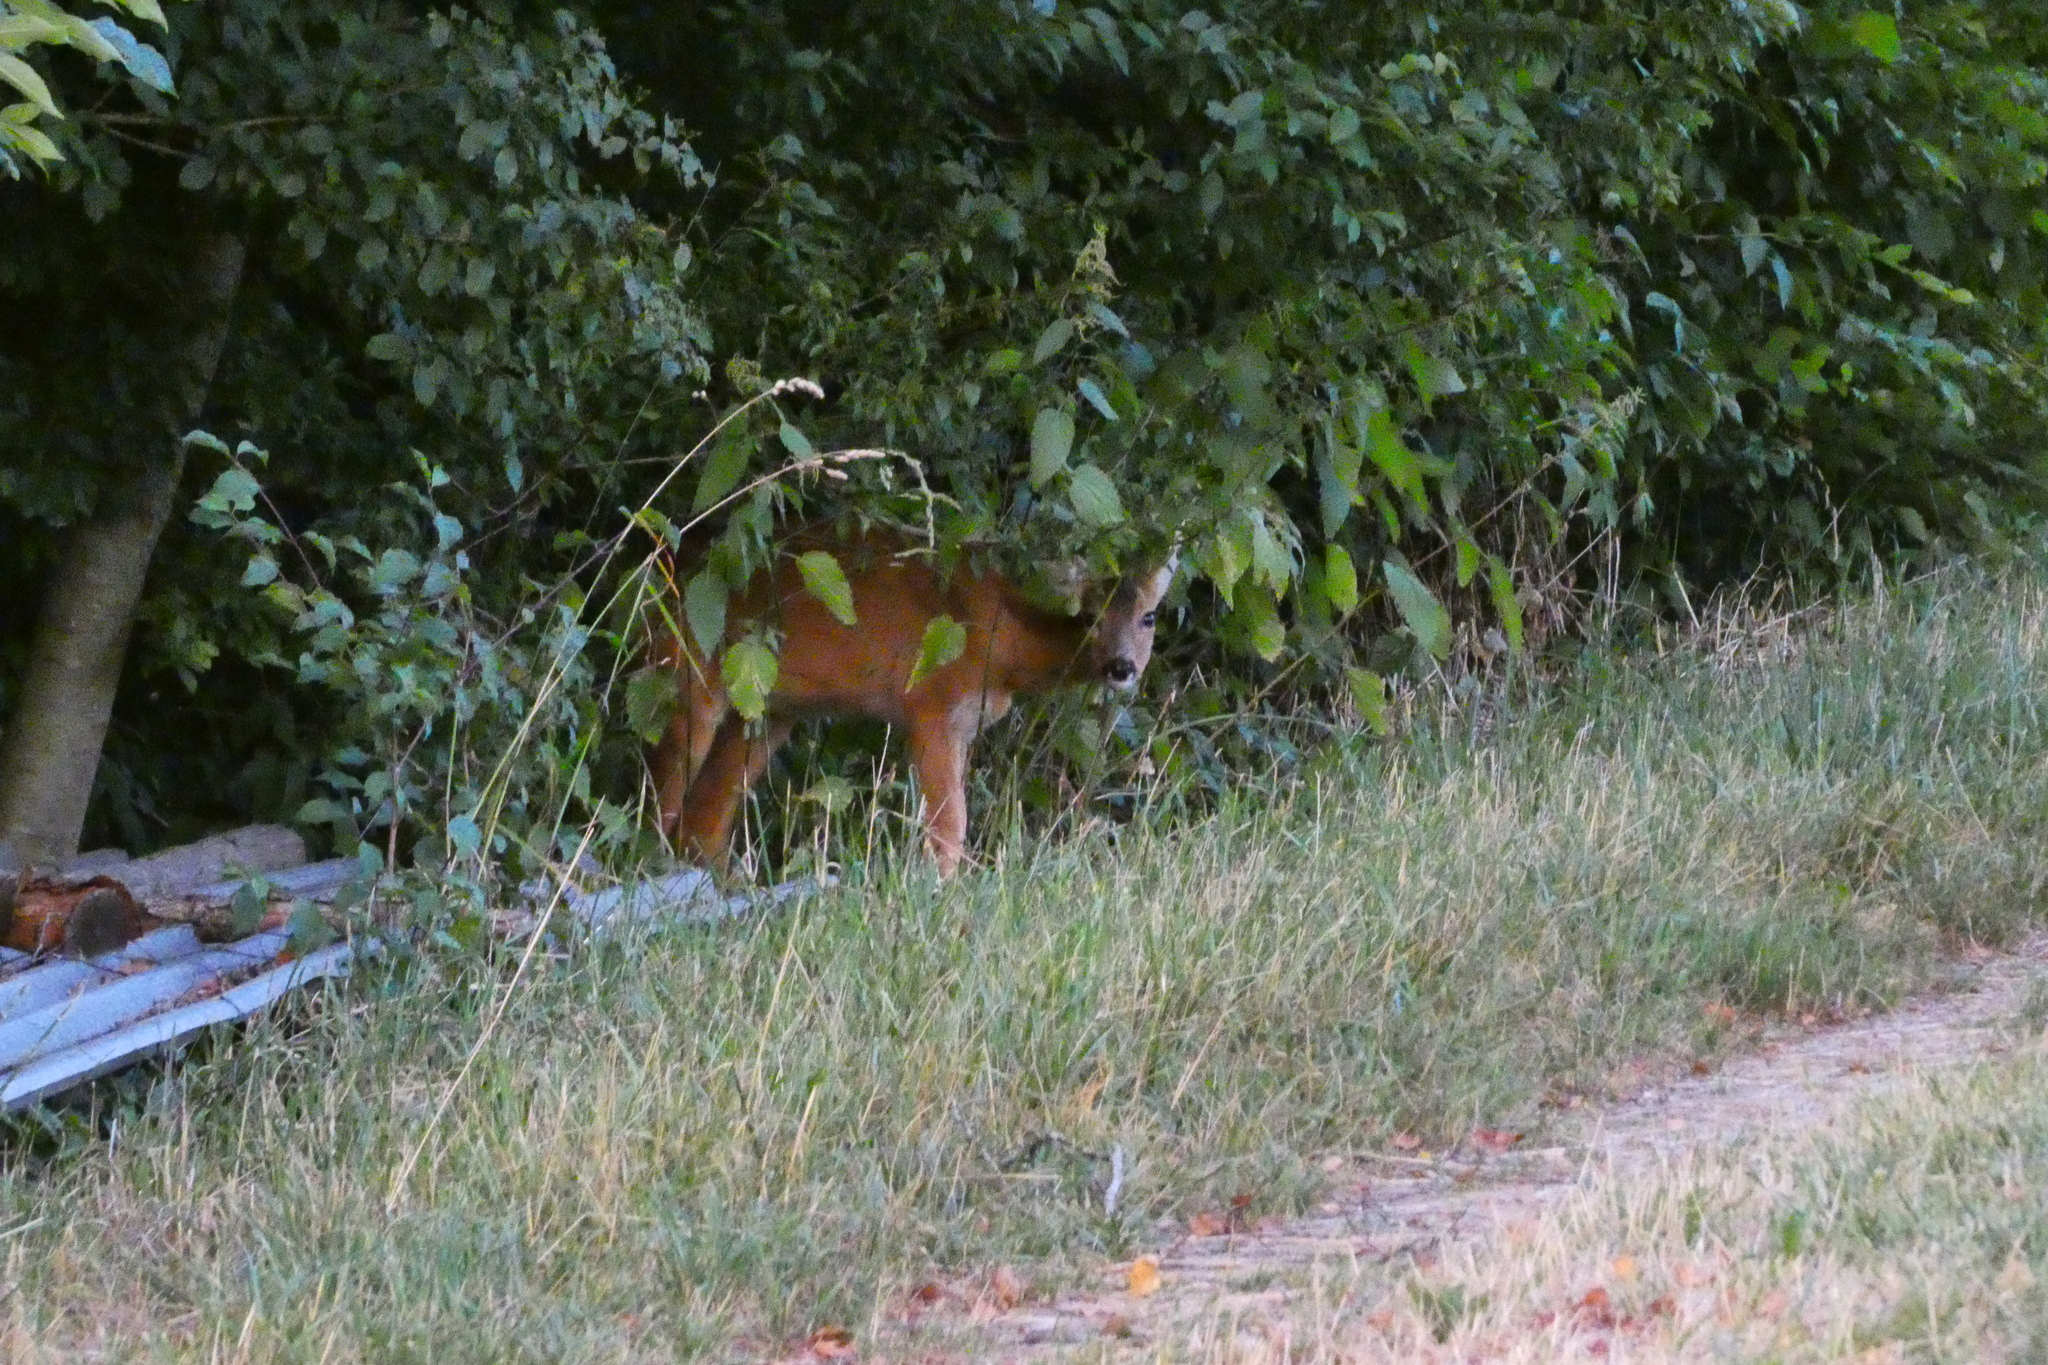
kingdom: Animalia
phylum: Chordata
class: Mammalia
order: Artiodactyla
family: Cervidae
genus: Capreolus
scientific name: Capreolus capreolus
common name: Western roe deer
